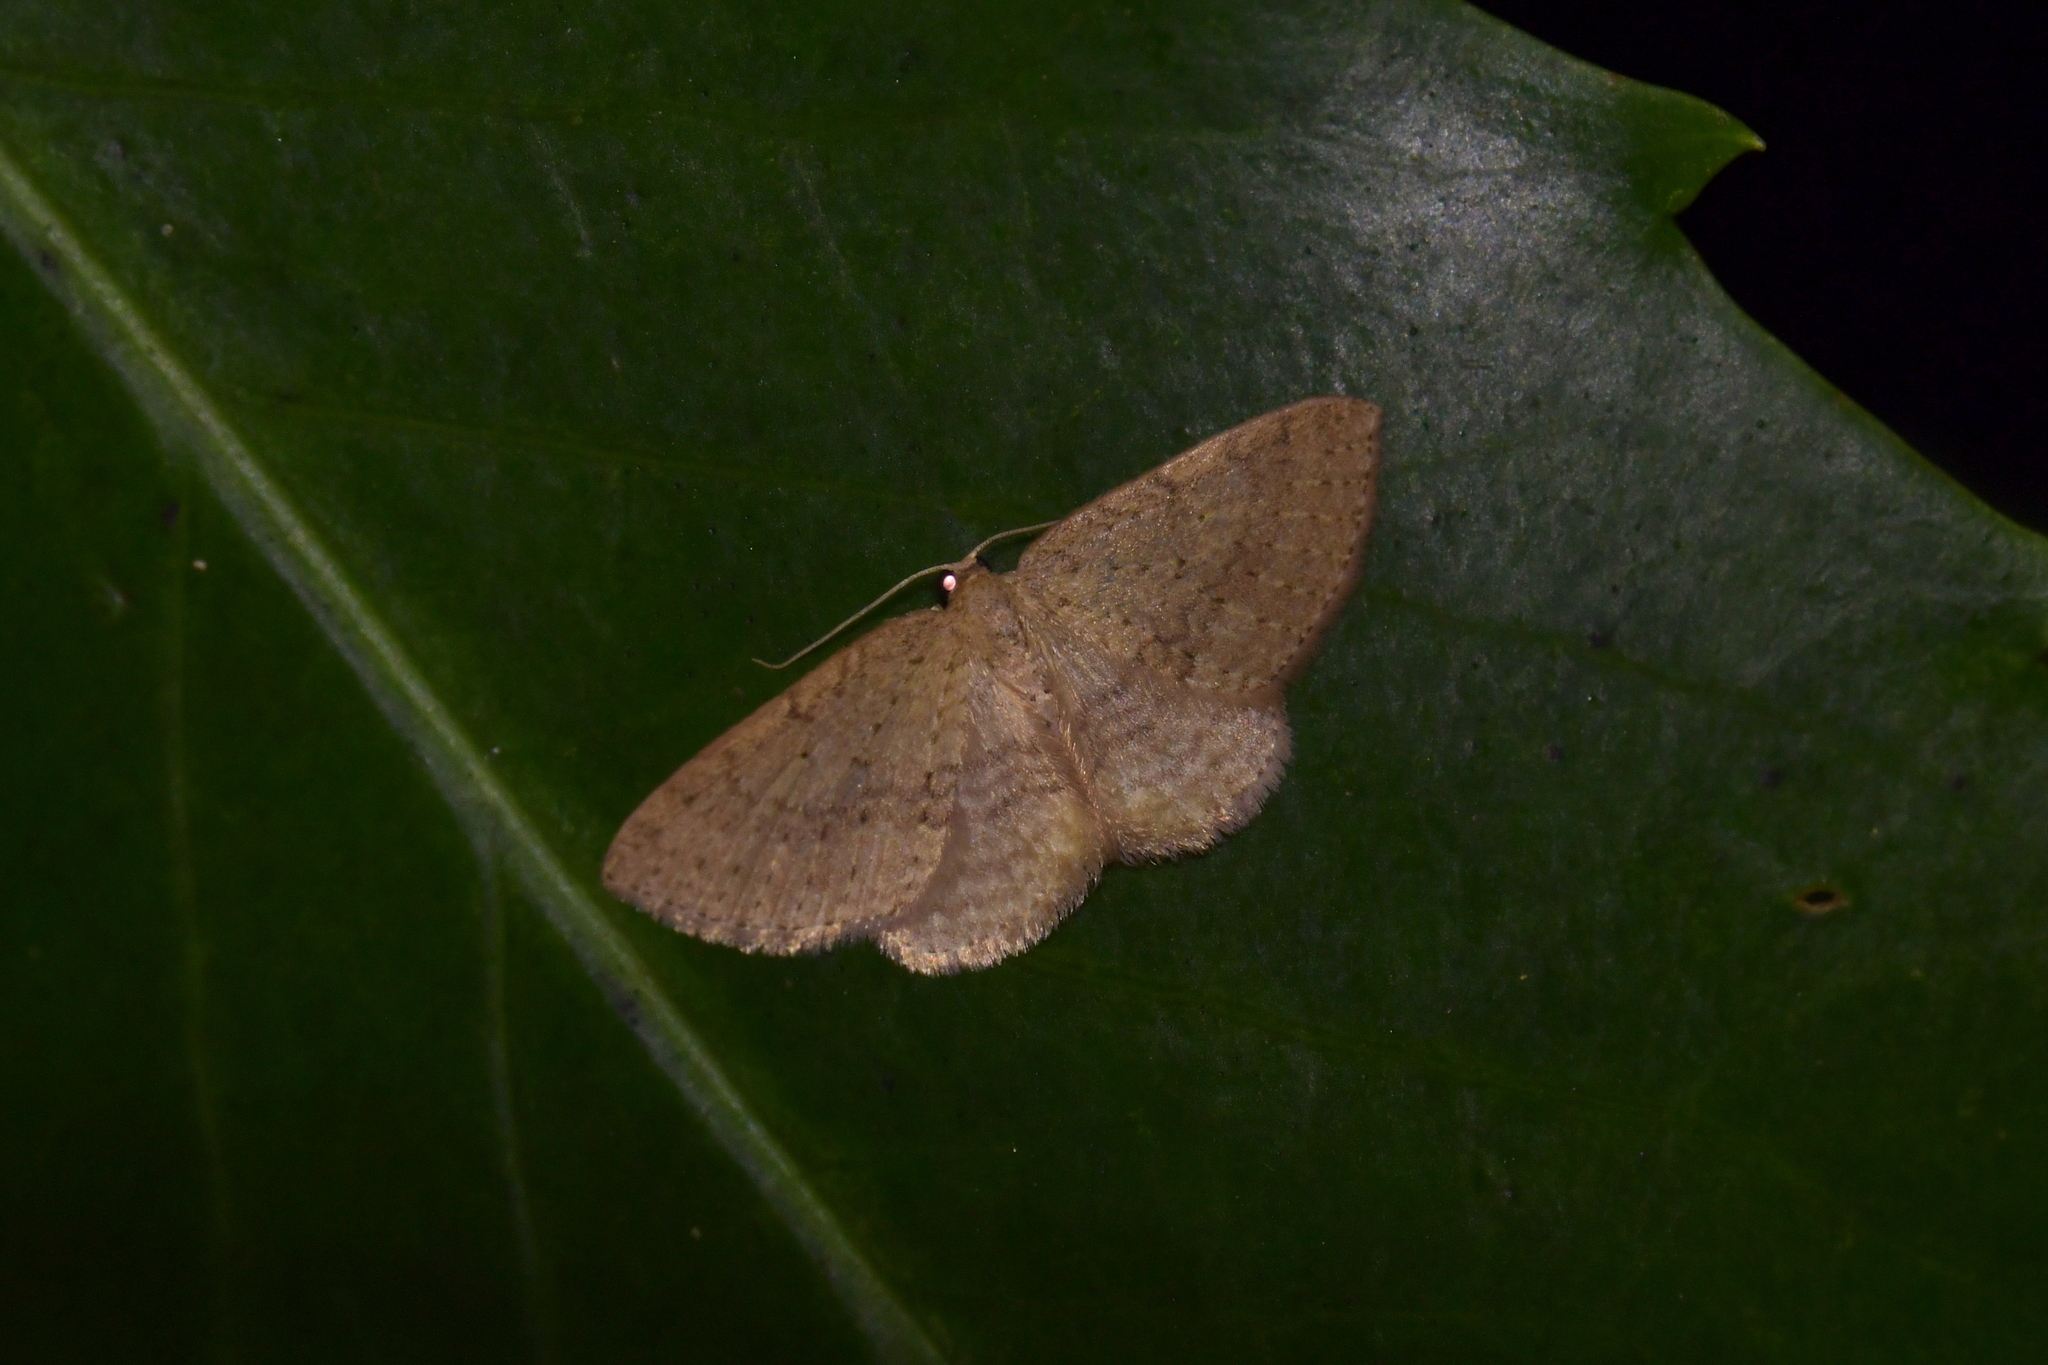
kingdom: Animalia
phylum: Arthropoda
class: Insecta
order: Lepidoptera
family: Geometridae
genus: Poecilasthena
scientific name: Poecilasthena schistaria
